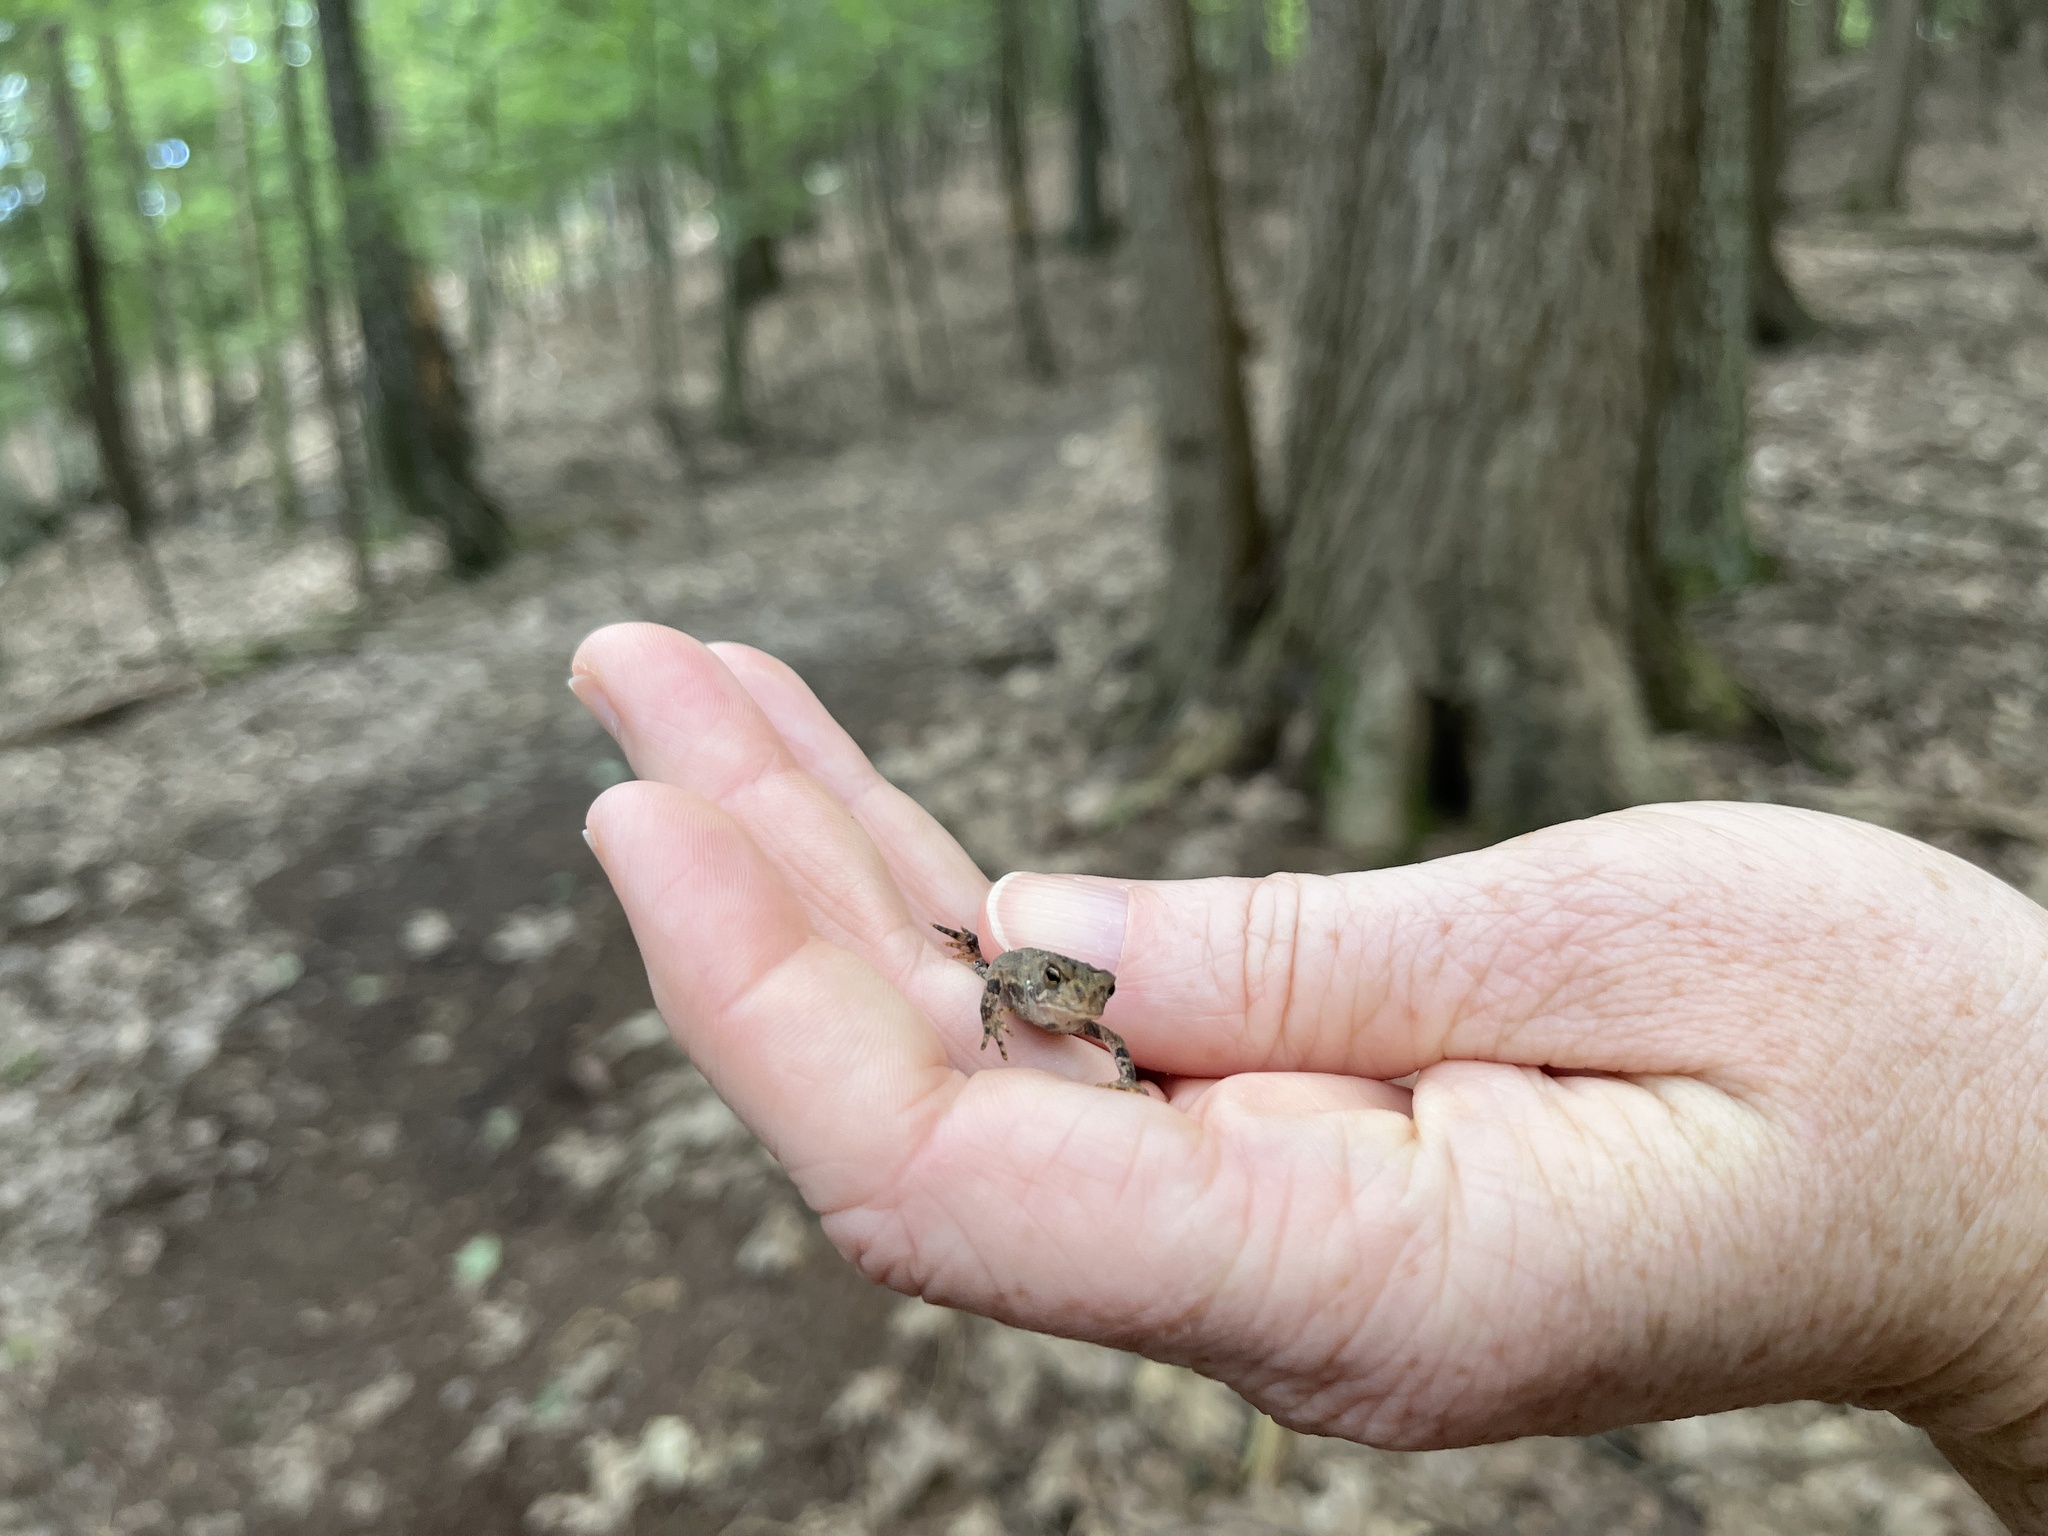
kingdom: Animalia
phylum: Chordata
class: Amphibia
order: Anura
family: Bufonidae
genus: Anaxyrus
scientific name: Anaxyrus americanus
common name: American toad
